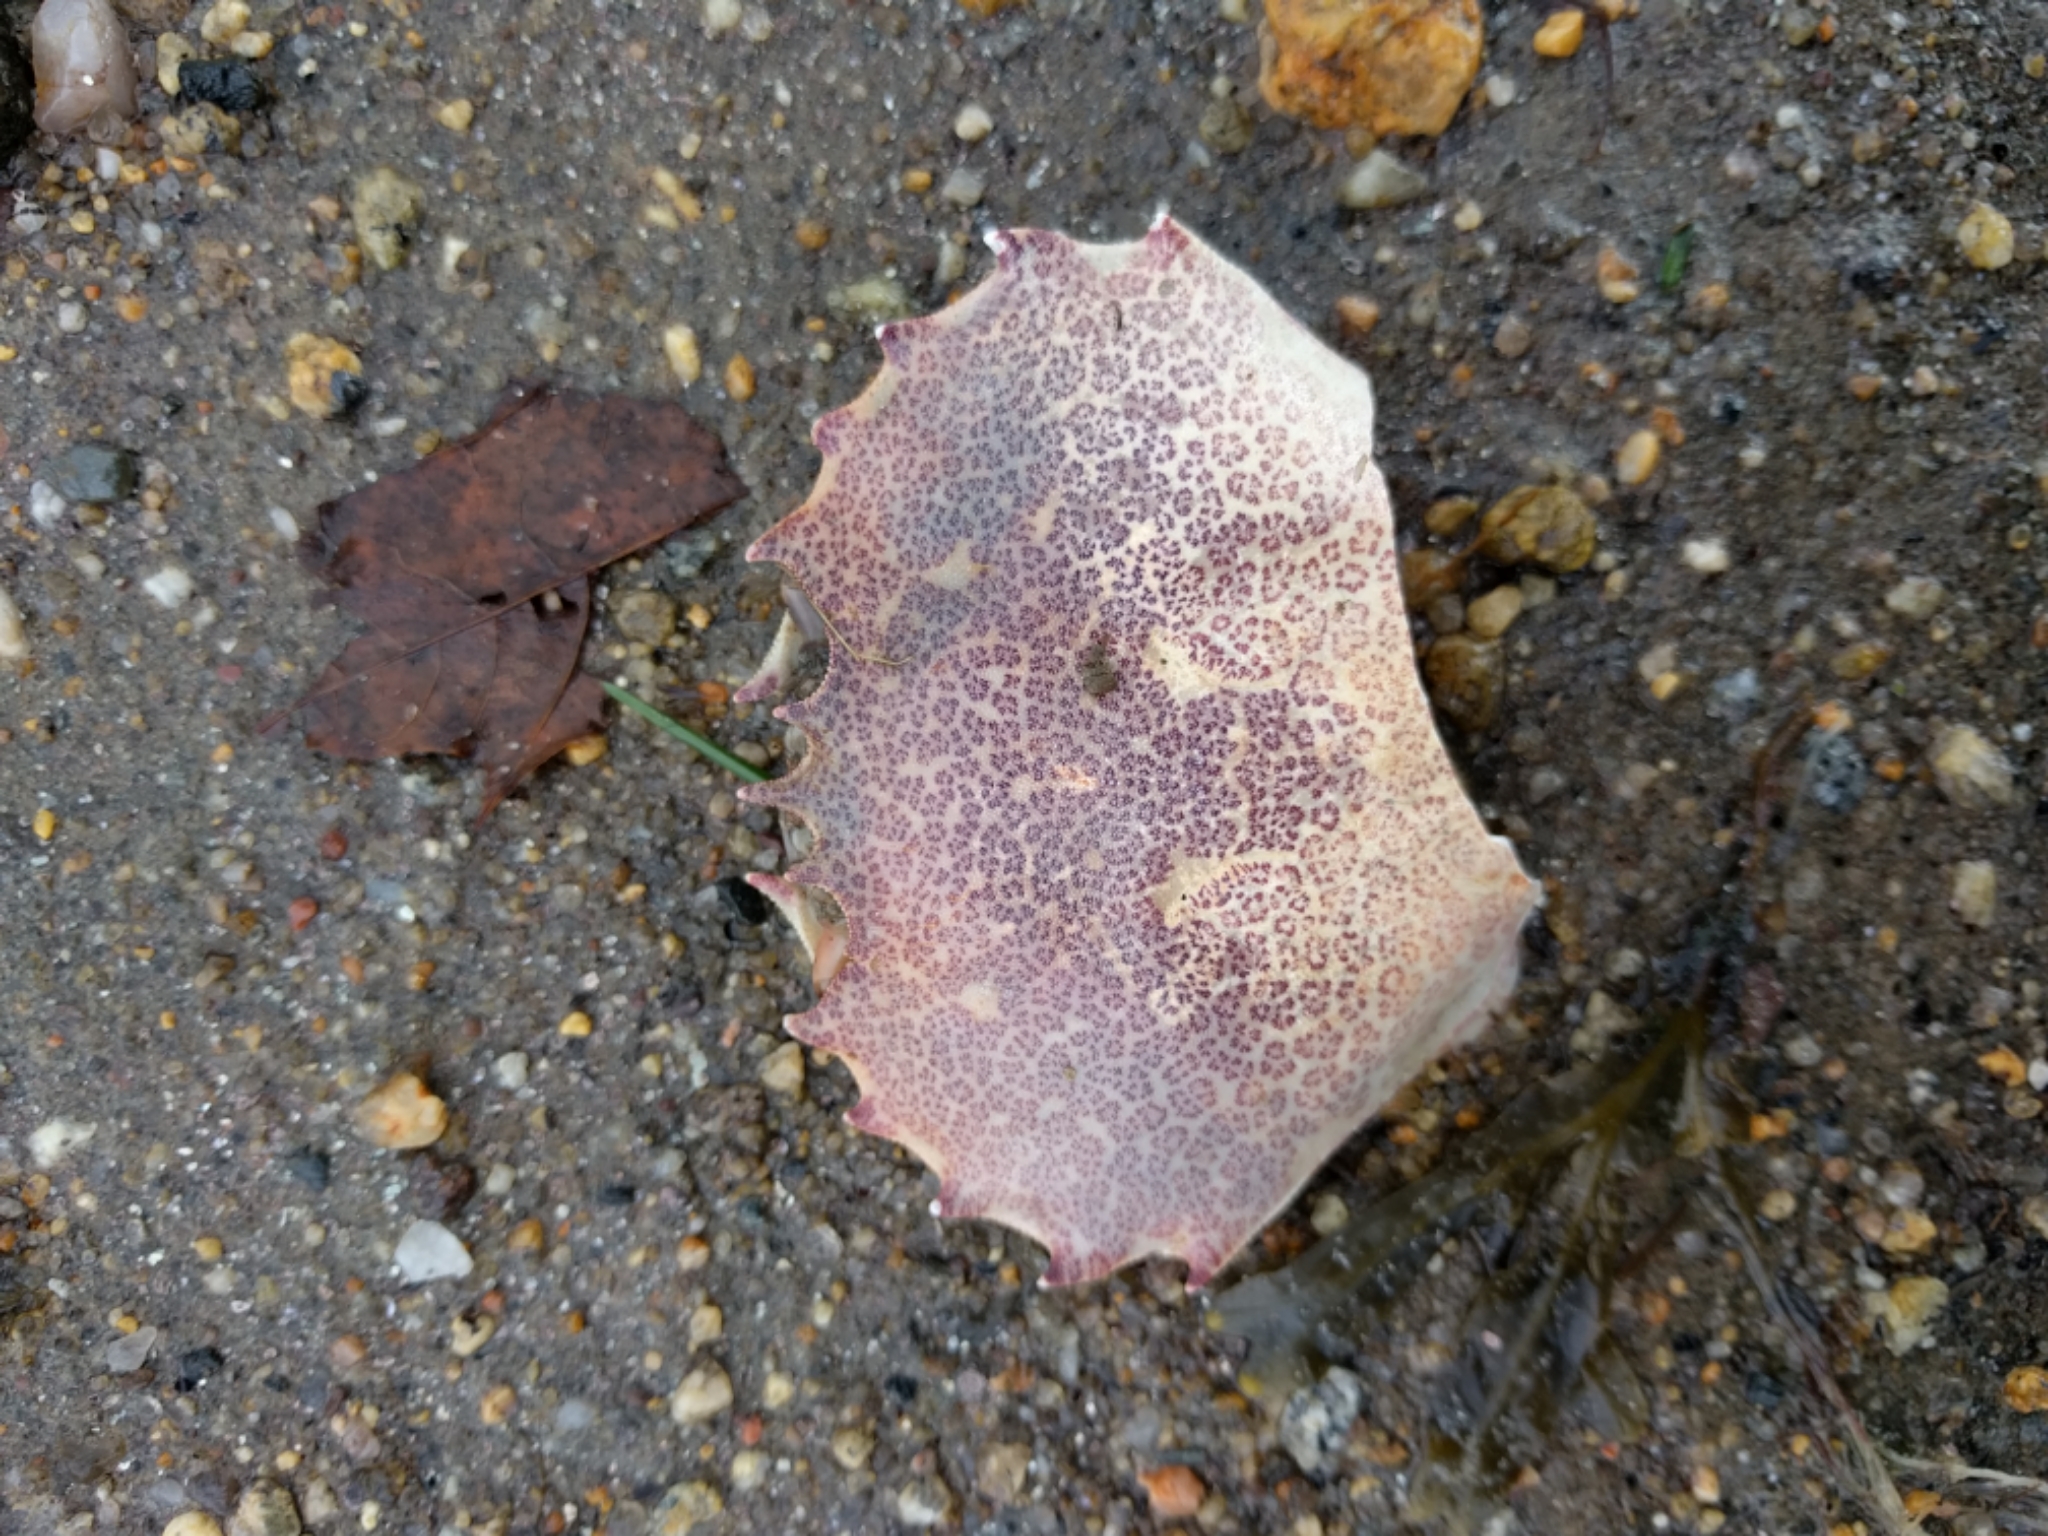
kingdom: Animalia
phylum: Arthropoda
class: Malacostraca
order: Decapoda
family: Ovalipidae
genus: Ovalipes
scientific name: Ovalipes ocellatus
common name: Lady crab
